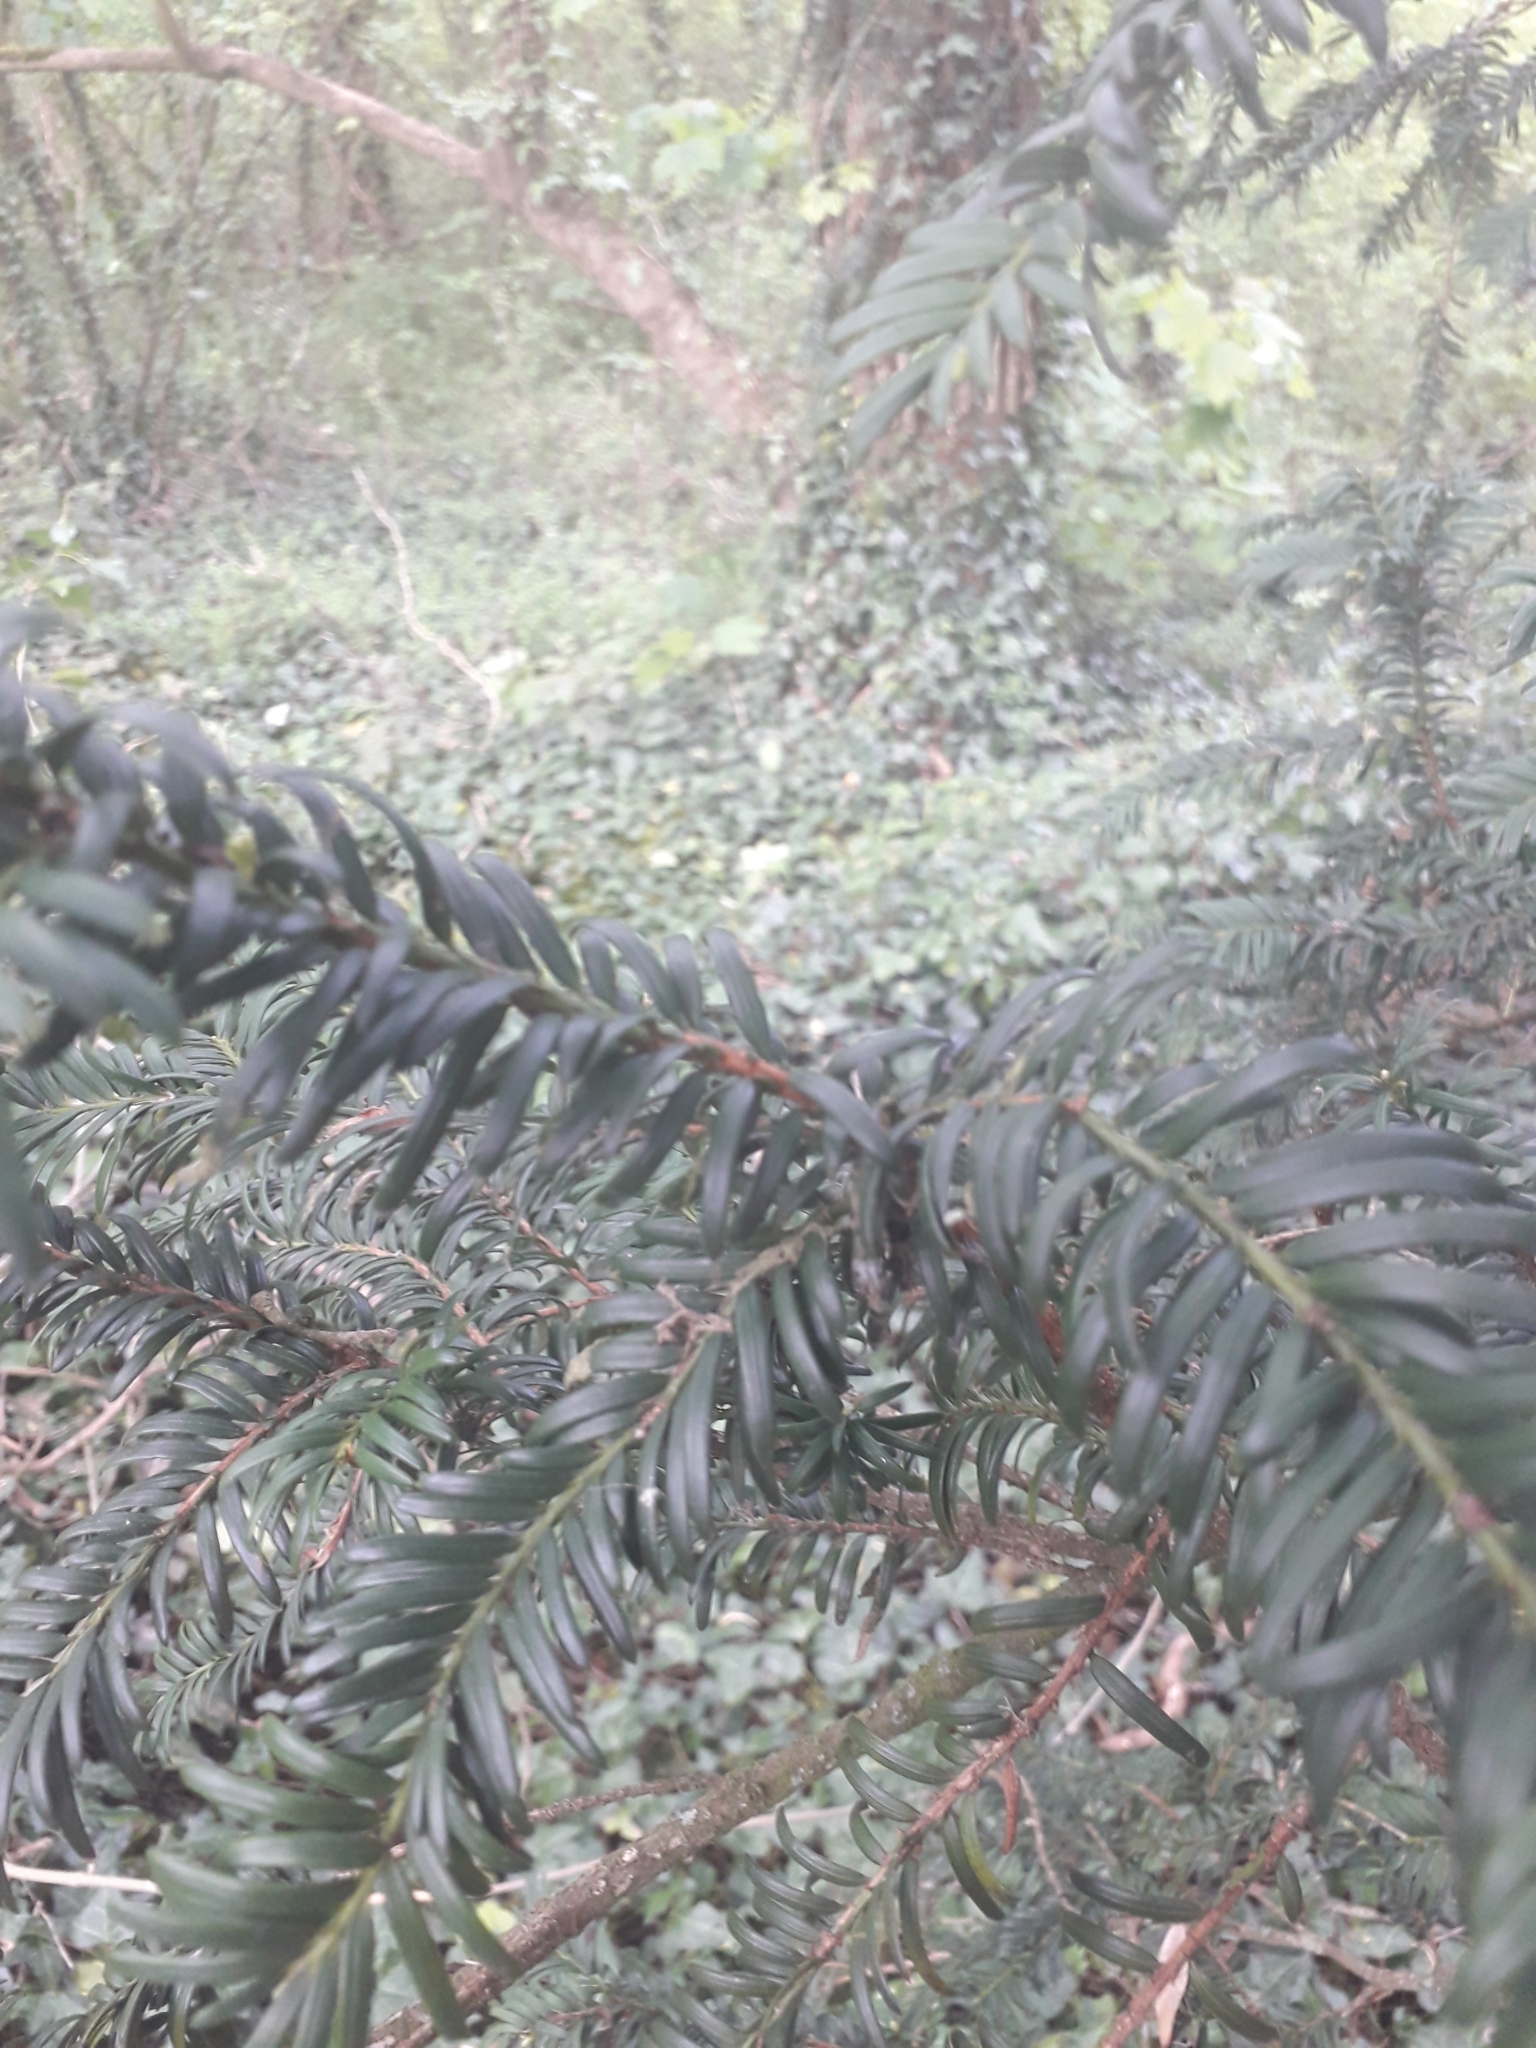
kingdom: Plantae
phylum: Tracheophyta
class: Pinopsida
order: Pinales
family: Taxaceae
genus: Taxus
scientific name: Taxus baccata
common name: Yew
